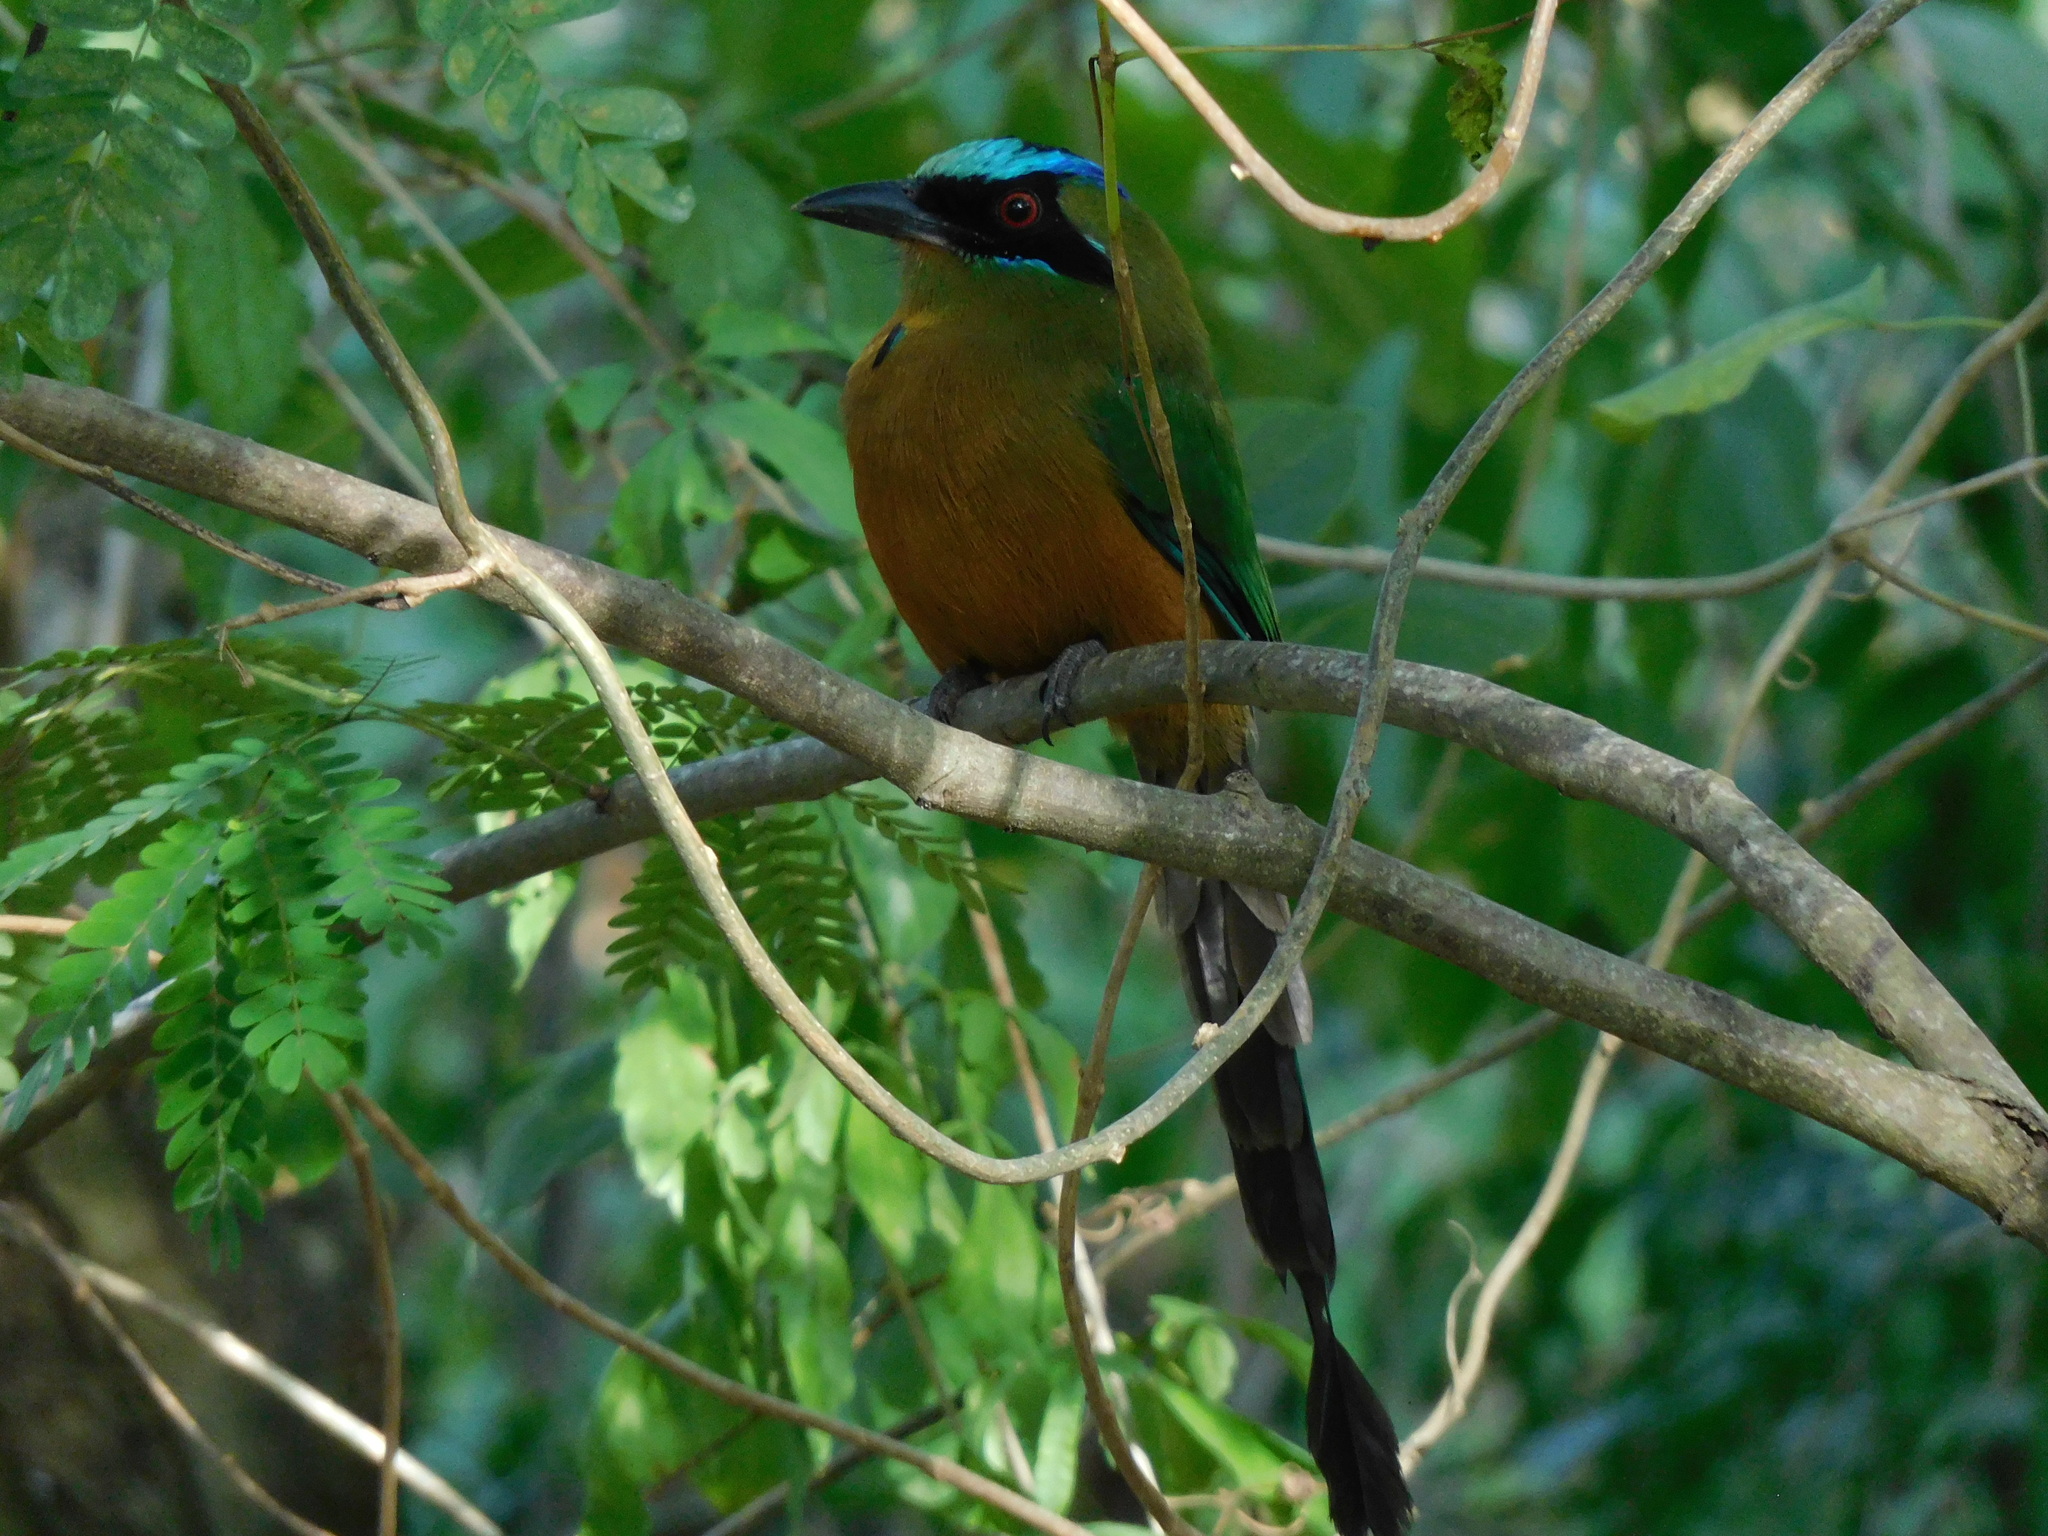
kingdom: Animalia
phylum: Chordata
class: Aves
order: Coraciiformes
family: Momotidae
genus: Momotus
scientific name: Momotus subrufescens
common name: Whooping motmot
